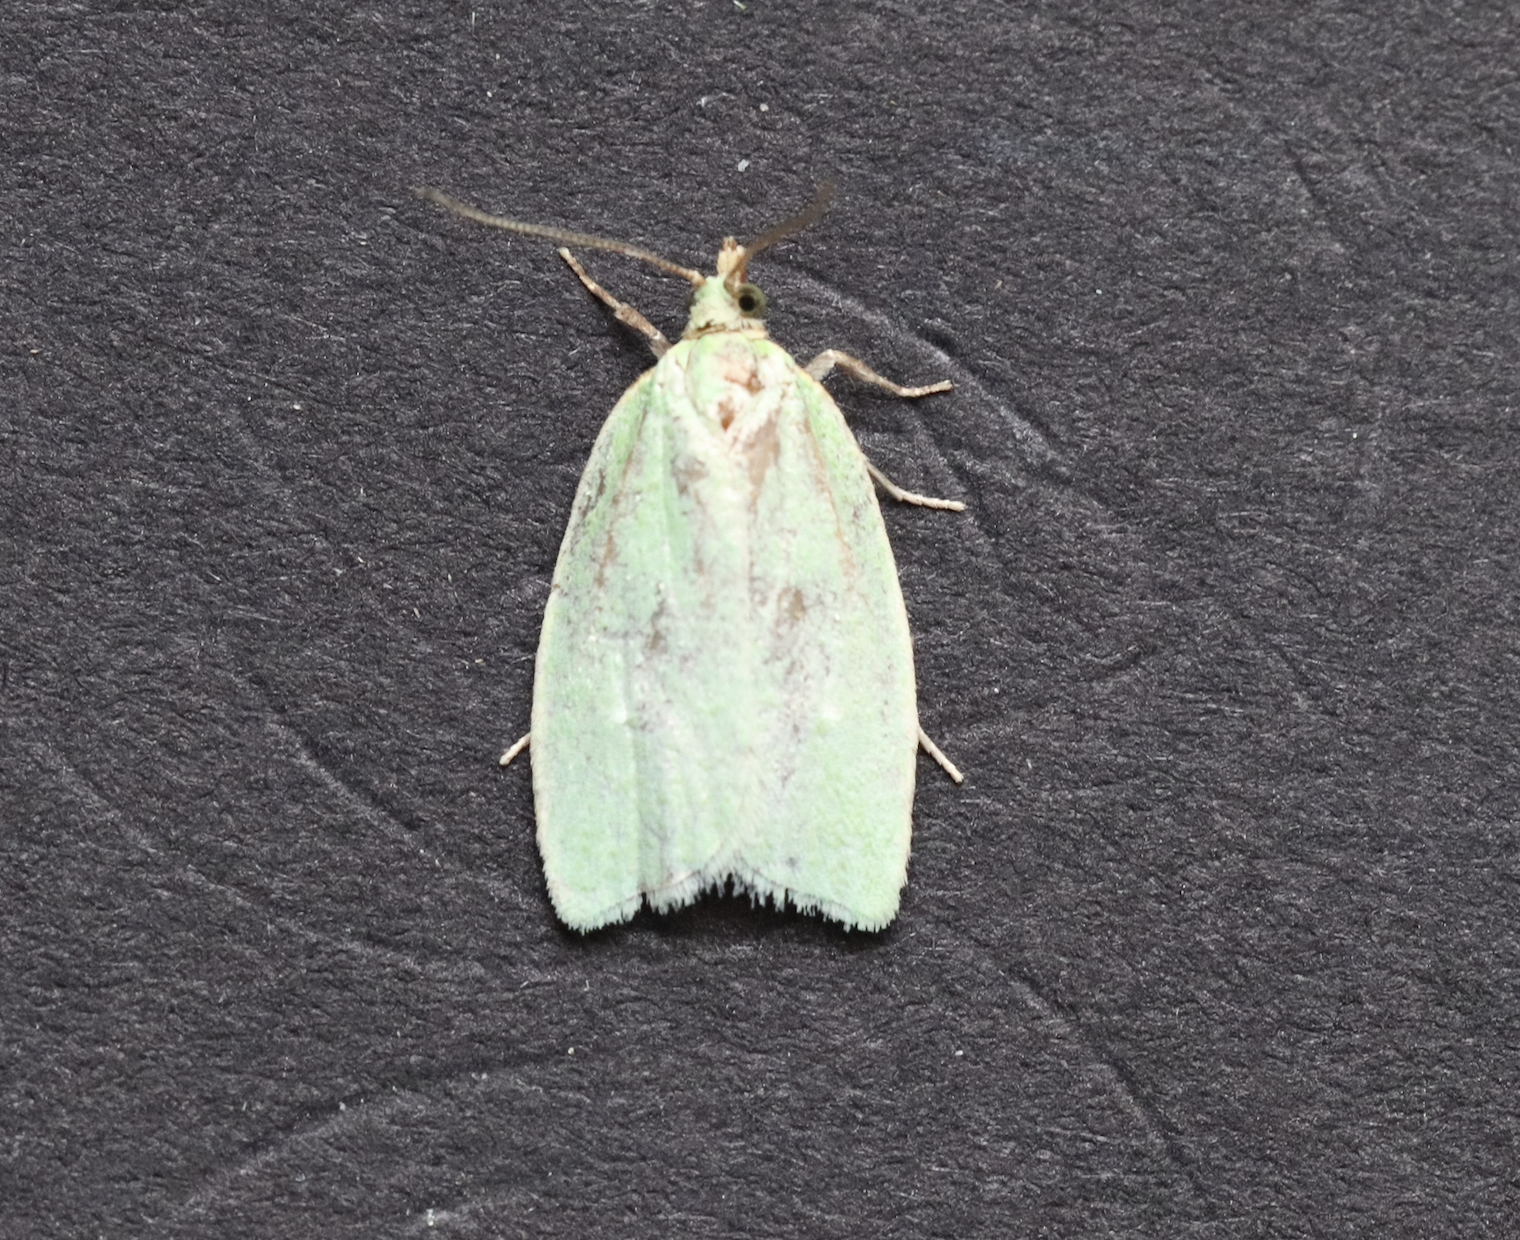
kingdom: Animalia
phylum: Arthropoda
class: Insecta
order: Lepidoptera
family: Tortricidae
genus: Tortrix
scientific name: Tortrix viridana
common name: Green oak tortrix
